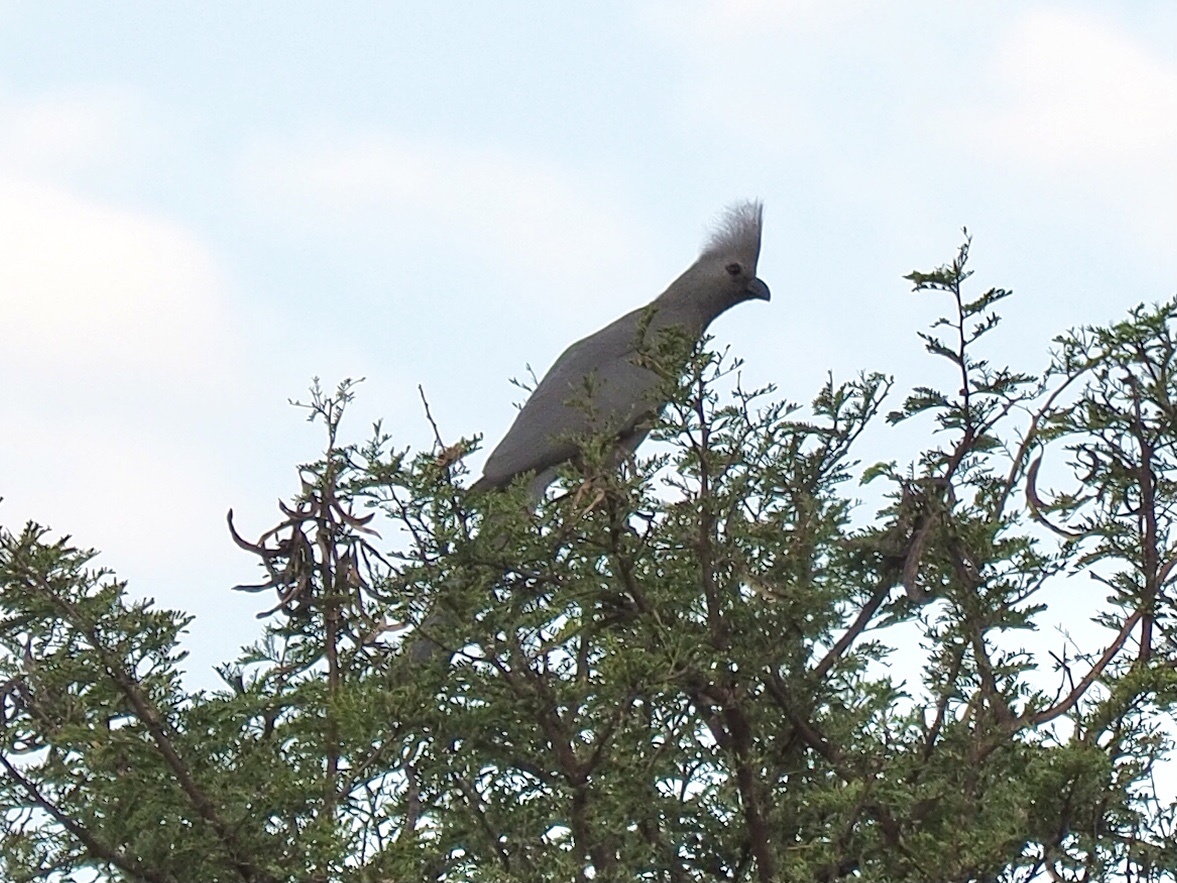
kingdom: Animalia
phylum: Chordata
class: Aves
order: Musophagiformes
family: Musophagidae
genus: Corythaixoides
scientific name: Corythaixoides concolor
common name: Grey go-away-bird
